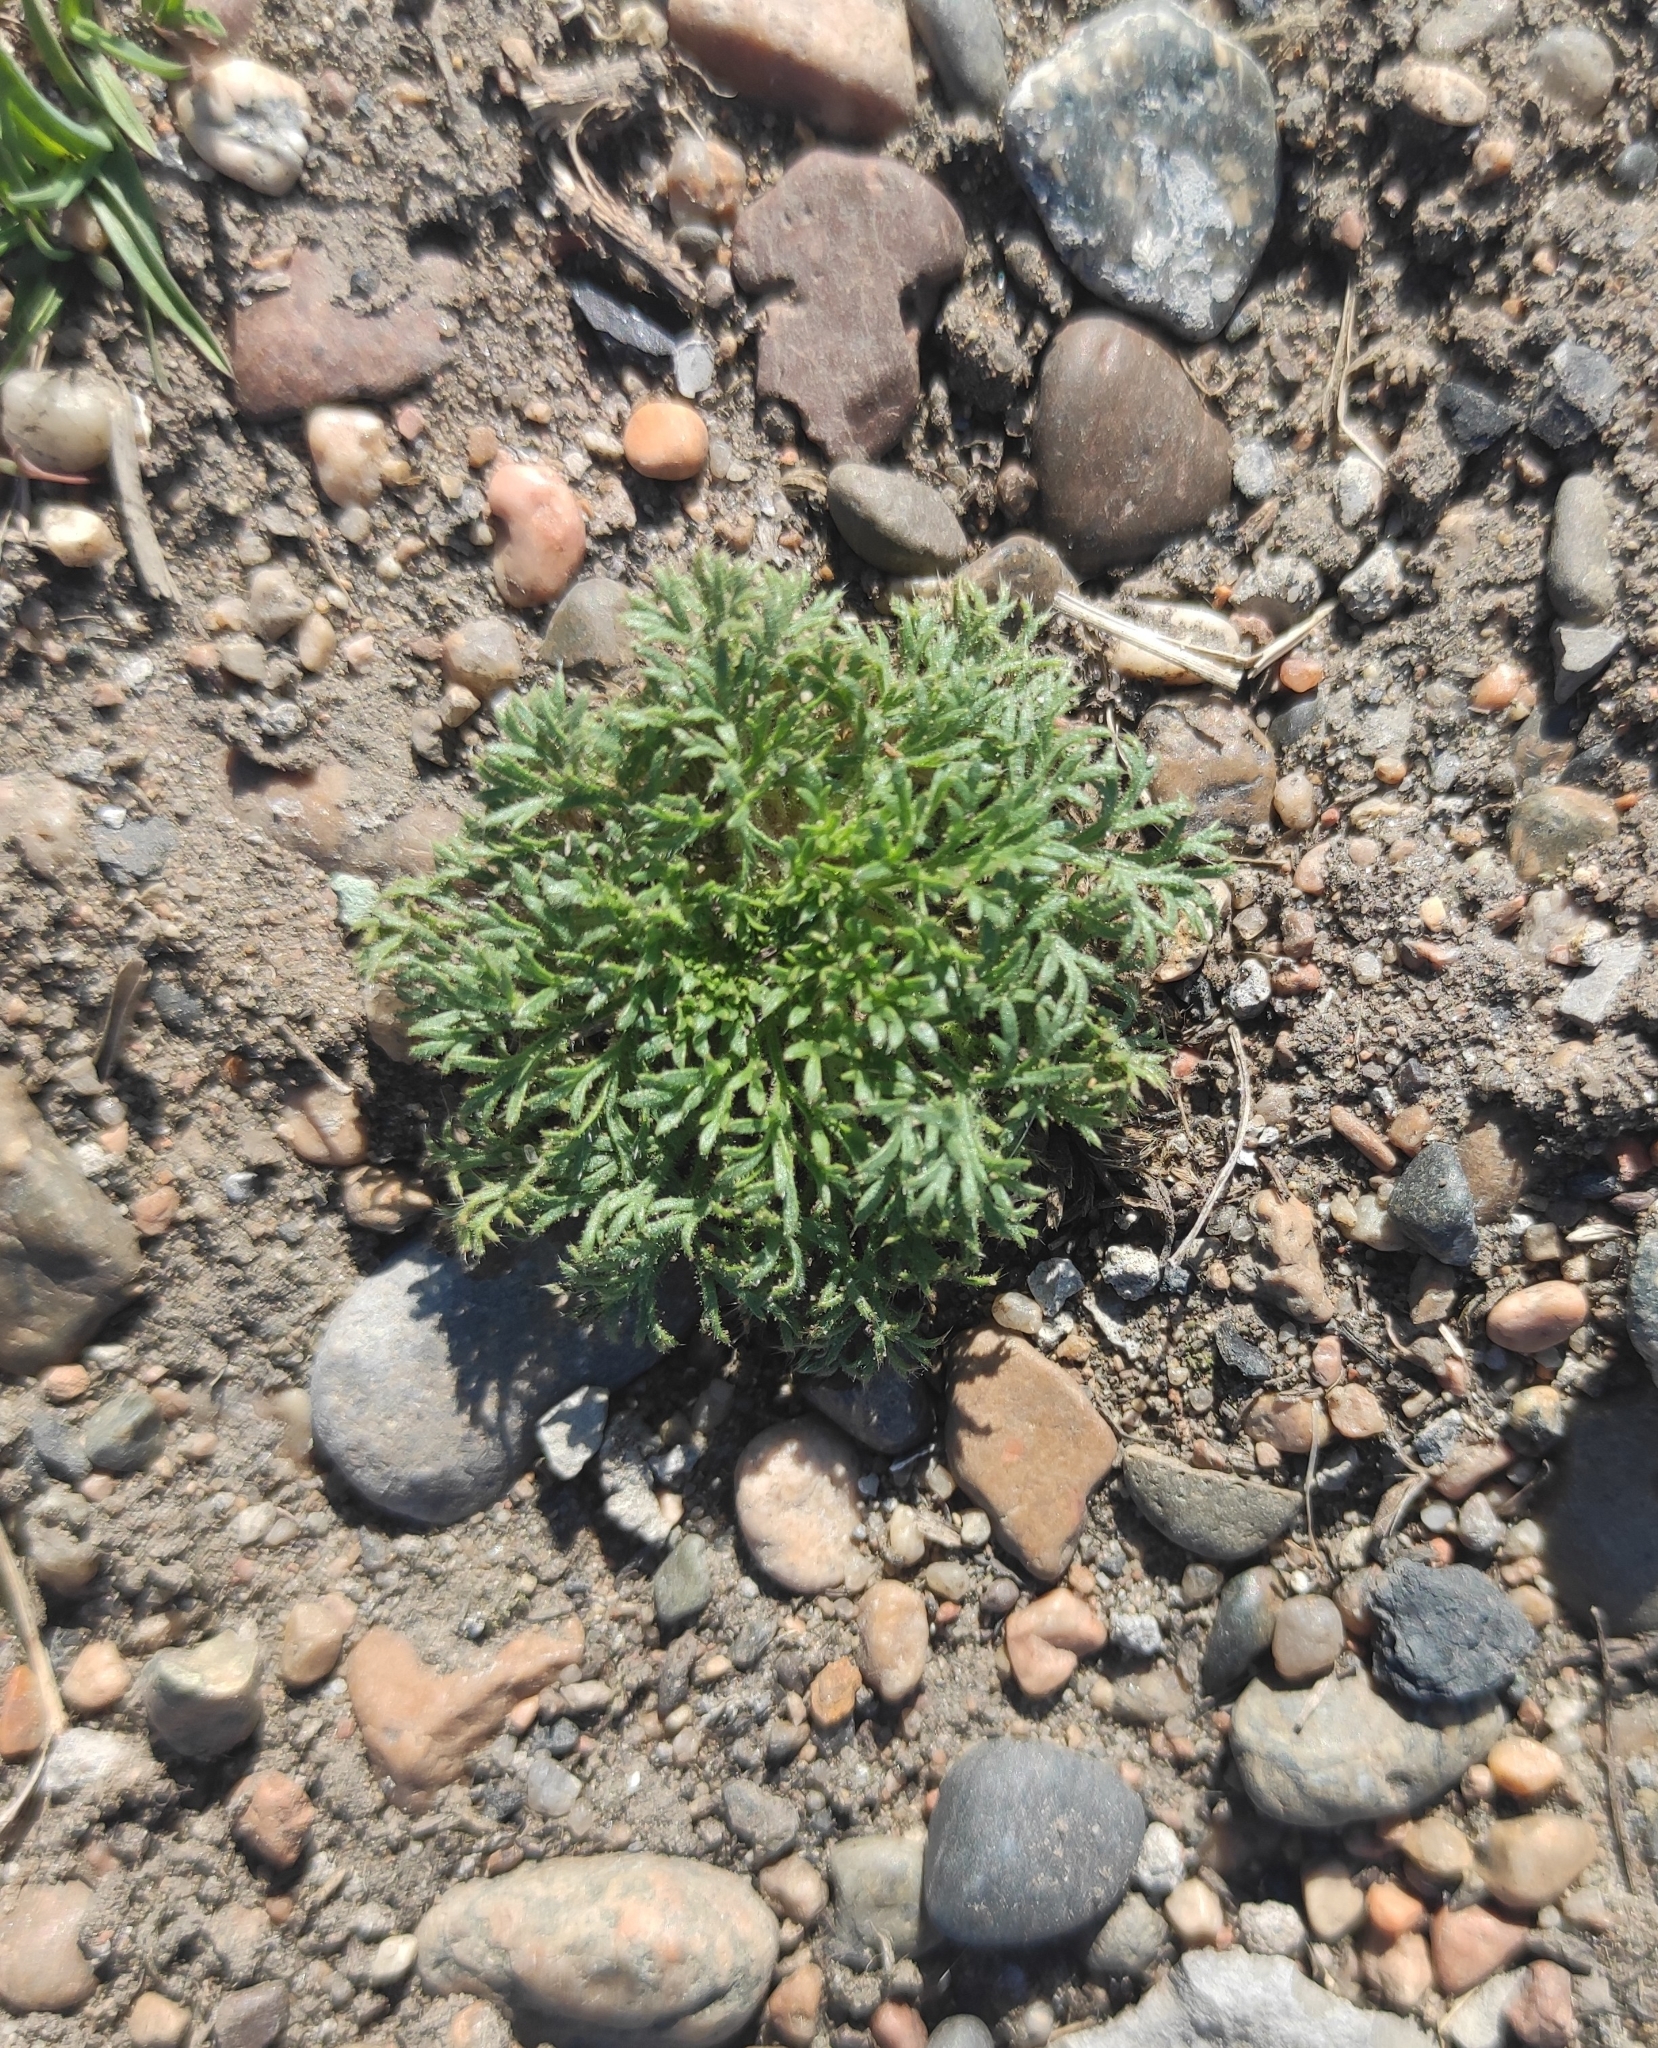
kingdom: Plantae
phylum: Tracheophyta
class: Magnoliopsida
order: Rosales
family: Rosaceae
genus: Chamaerhodos
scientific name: Chamaerhodos erecta
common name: American chamaerhodos
